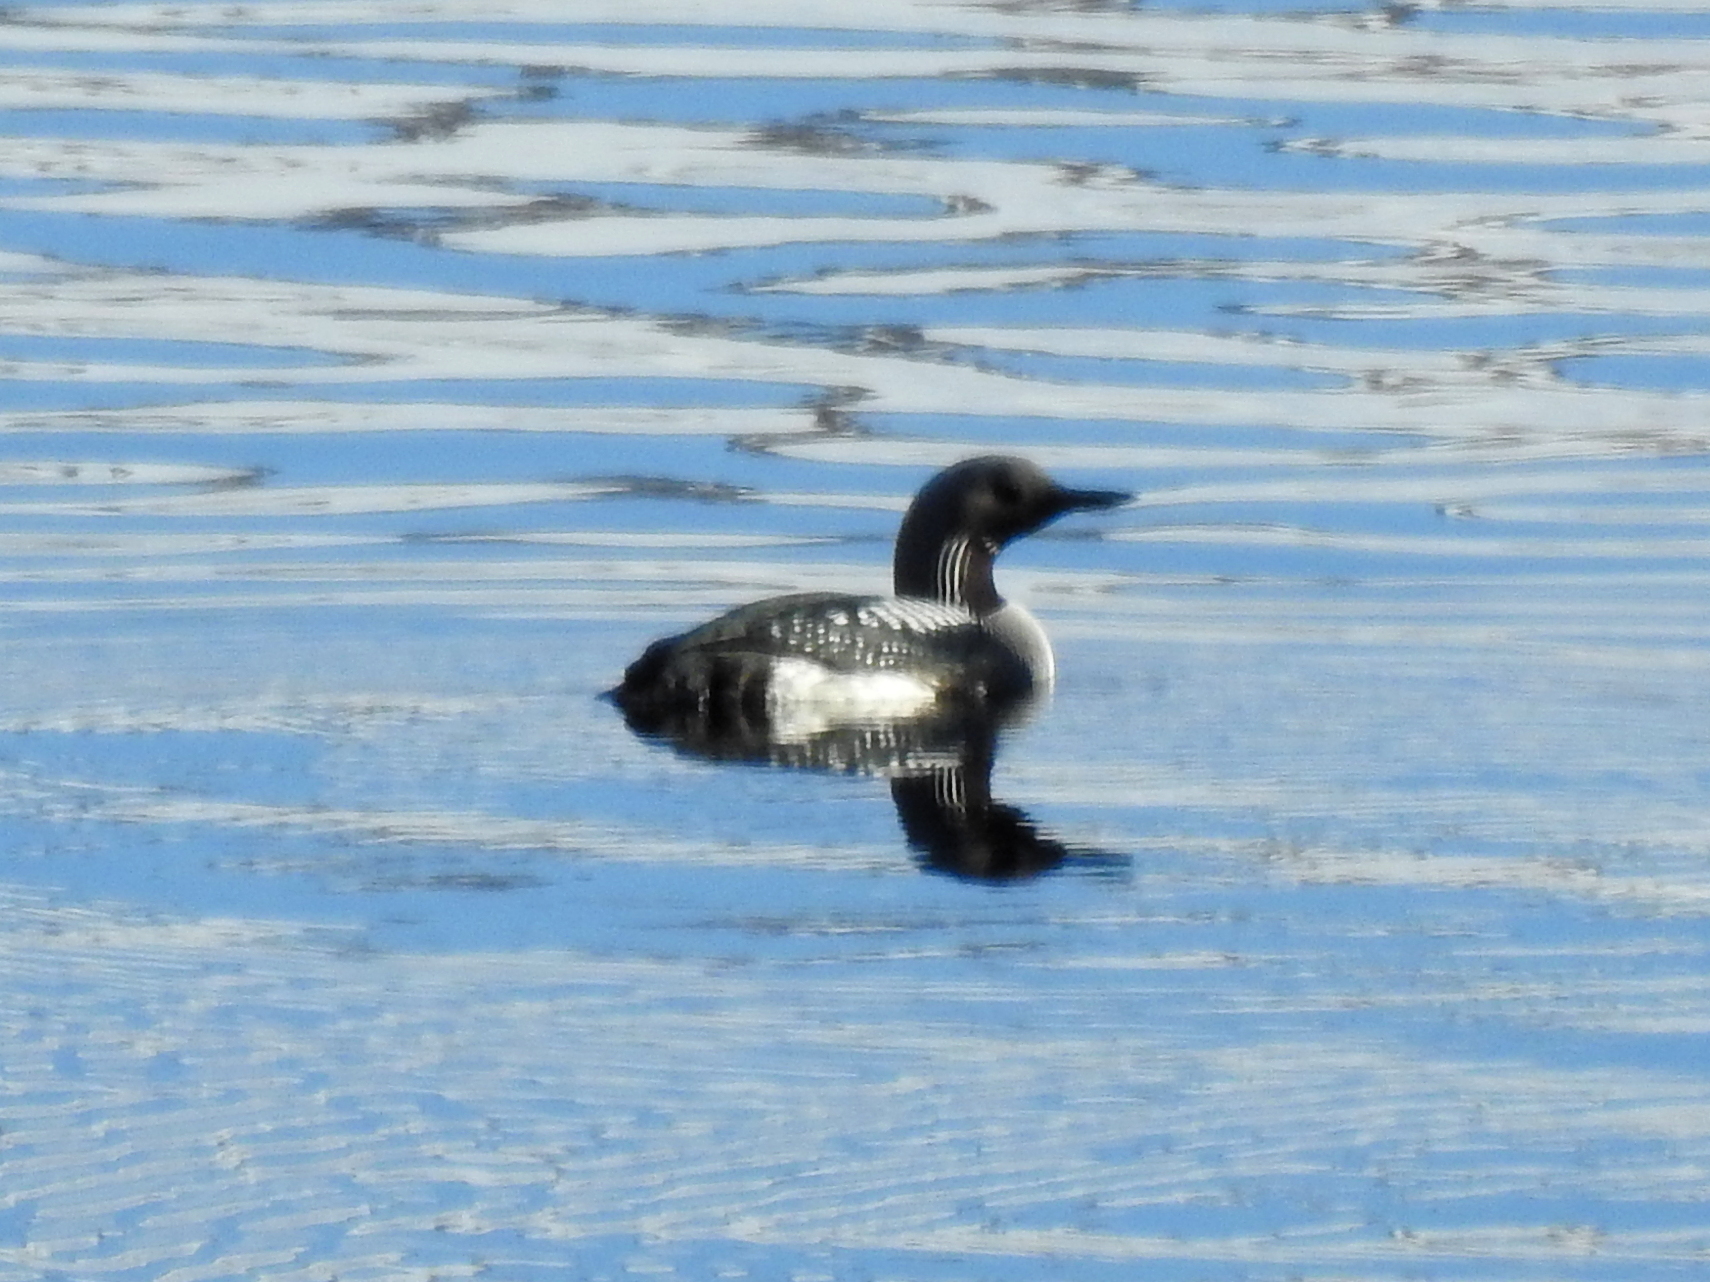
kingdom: Animalia
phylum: Chordata
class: Aves
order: Gaviiformes
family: Gaviidae
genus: Gavia
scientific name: Gavia arctica
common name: Black-throated loon
